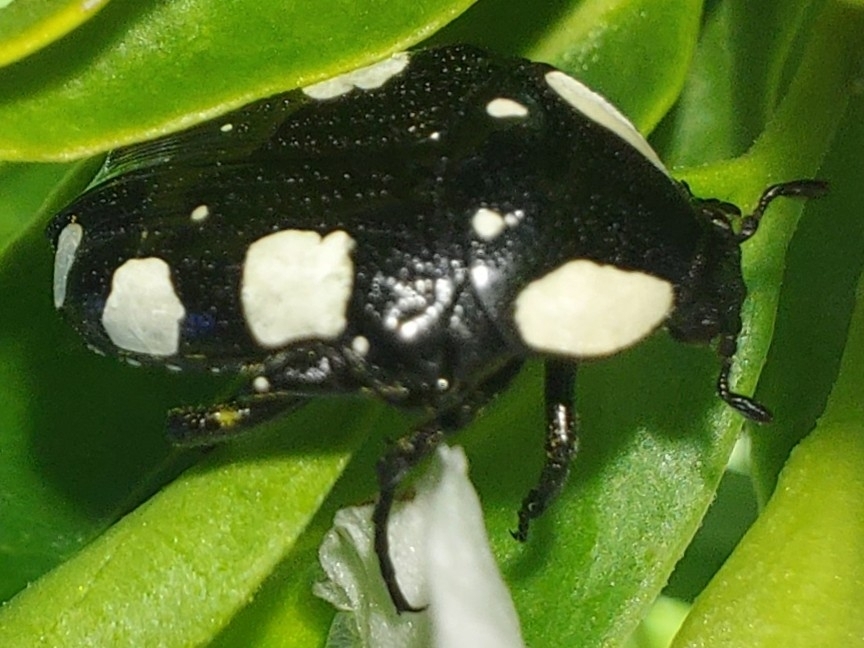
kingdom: Animalia
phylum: Arthropoda
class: Insecta
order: Coleoptera
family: Scarabaeidae
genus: Mausoleopsis
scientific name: Mausoleopsis amabilis
